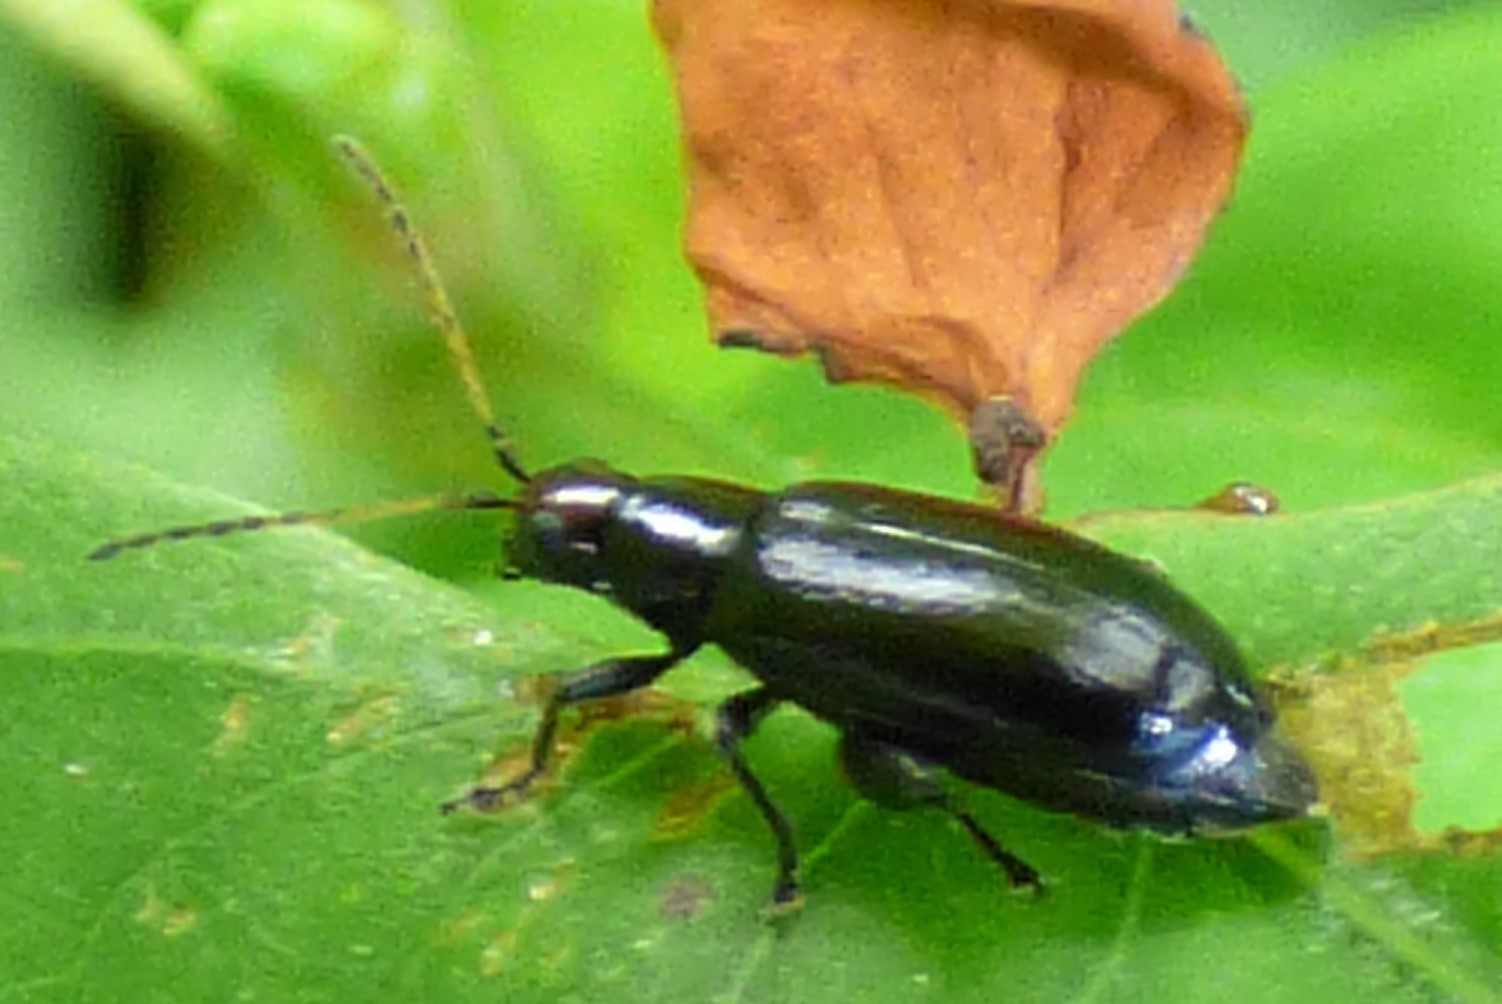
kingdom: Animalia
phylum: Arthropoda
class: Insecta
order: Coleoptera
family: Chrysomelidae
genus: Systena
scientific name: Systena frontalis
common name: Red-headed flea beetle
